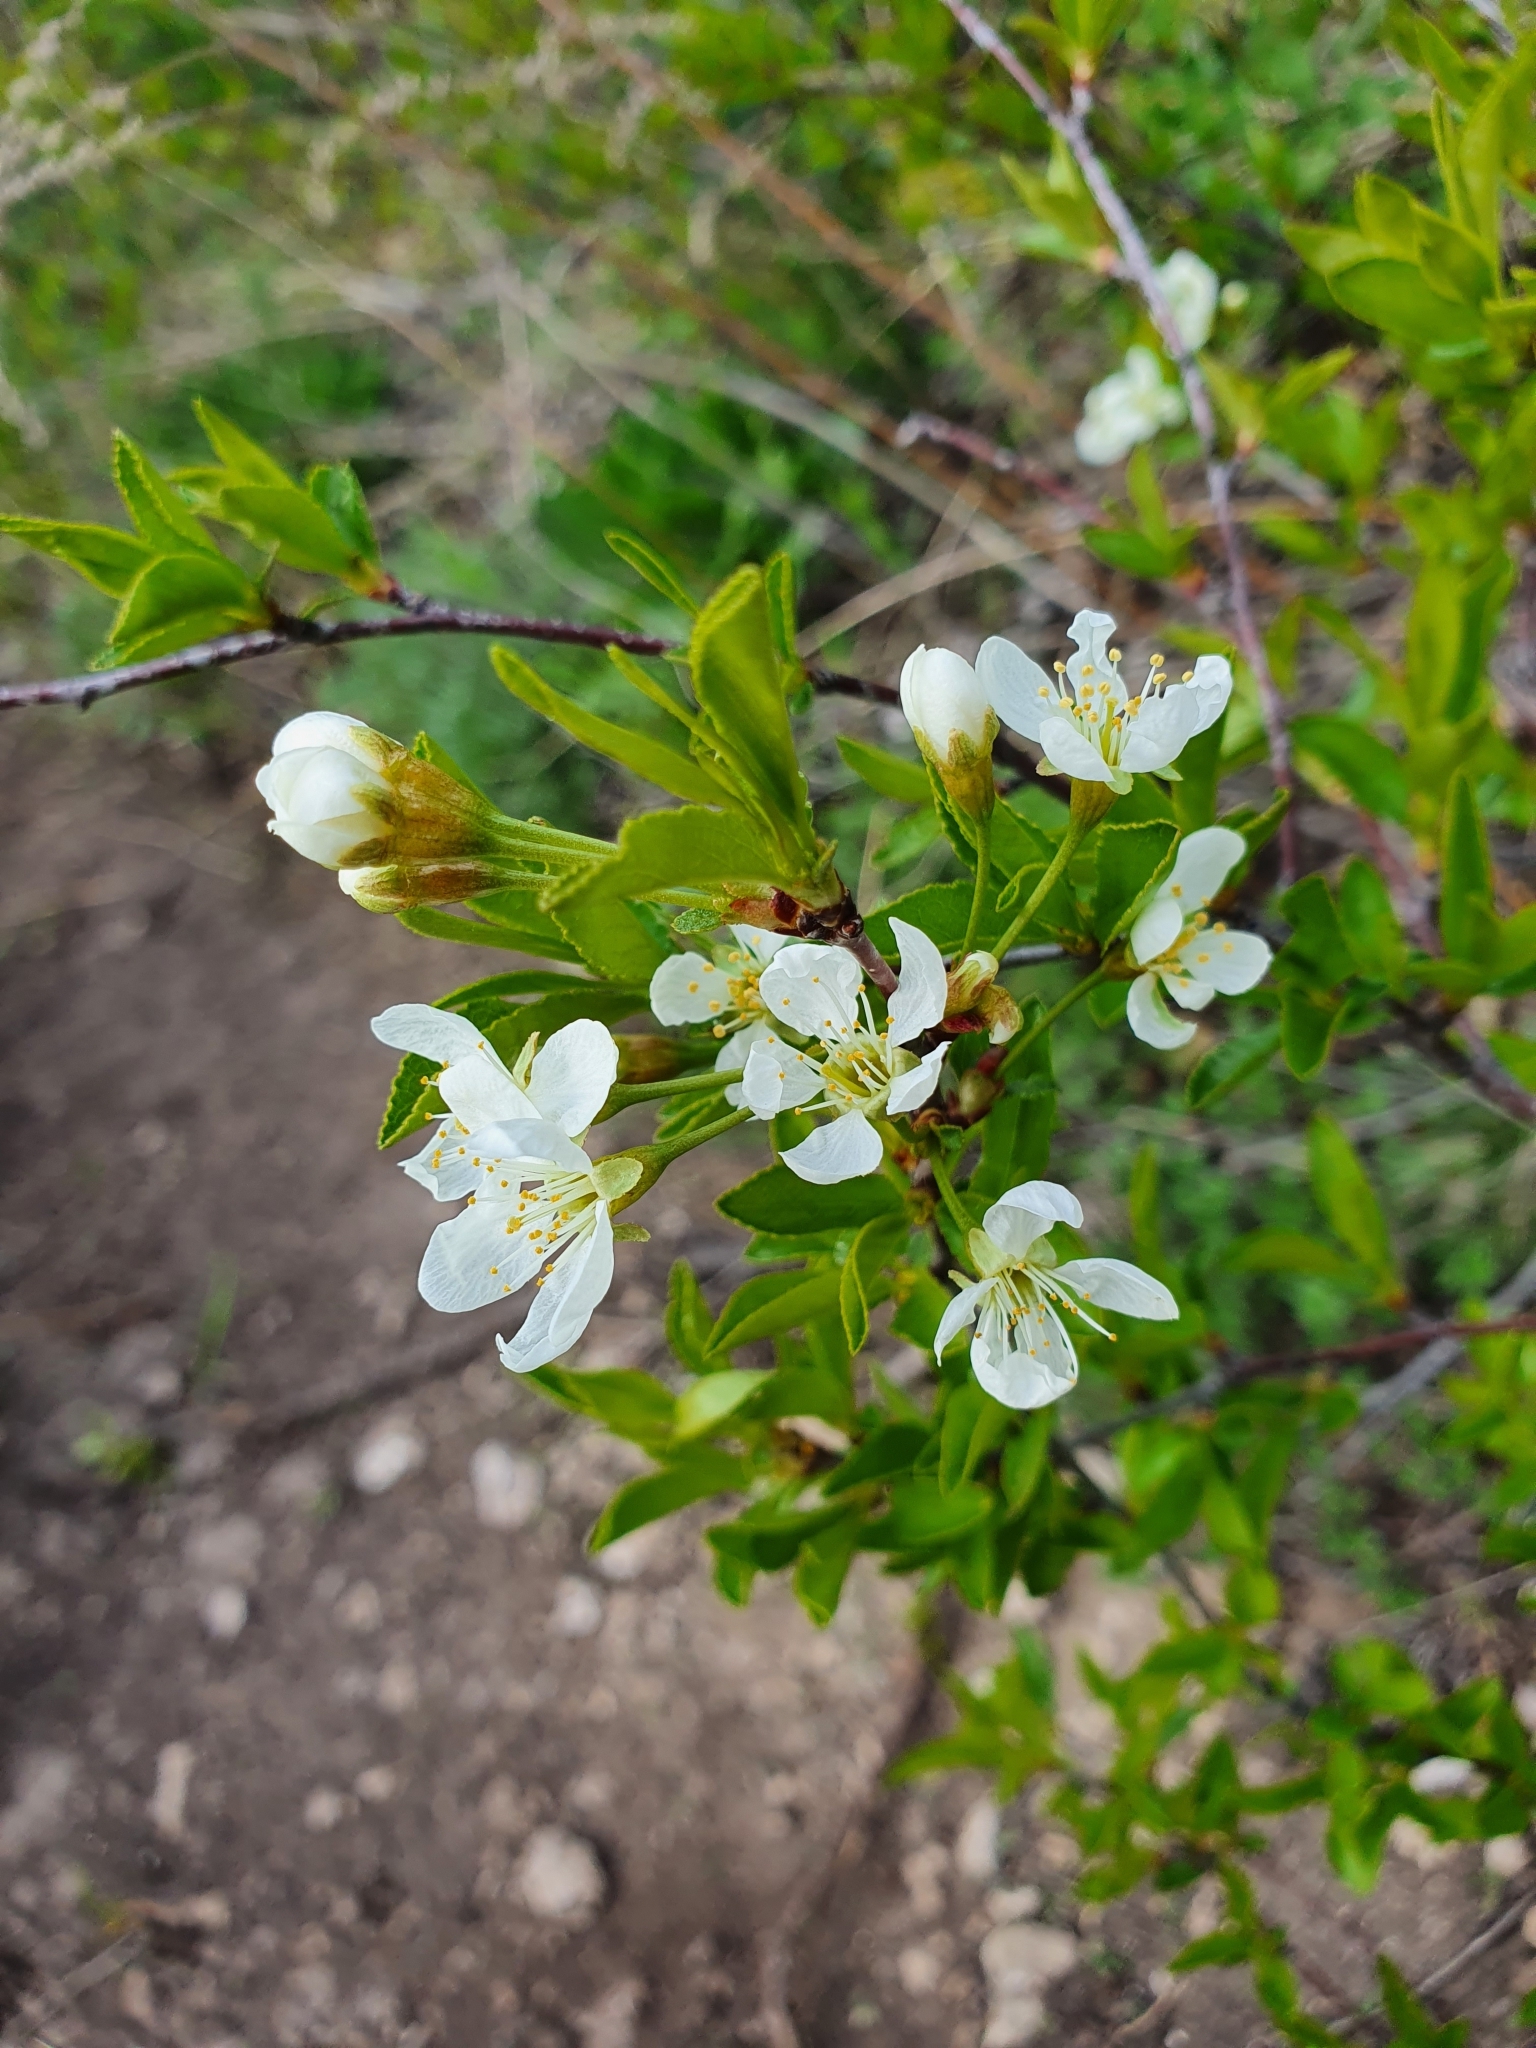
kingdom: Plantae
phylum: Tracheophyta
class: Magnoliopsida
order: Rosales
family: Rosaceae
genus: Prunus
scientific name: Prunus fruticosa
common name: European dwarf cherry
